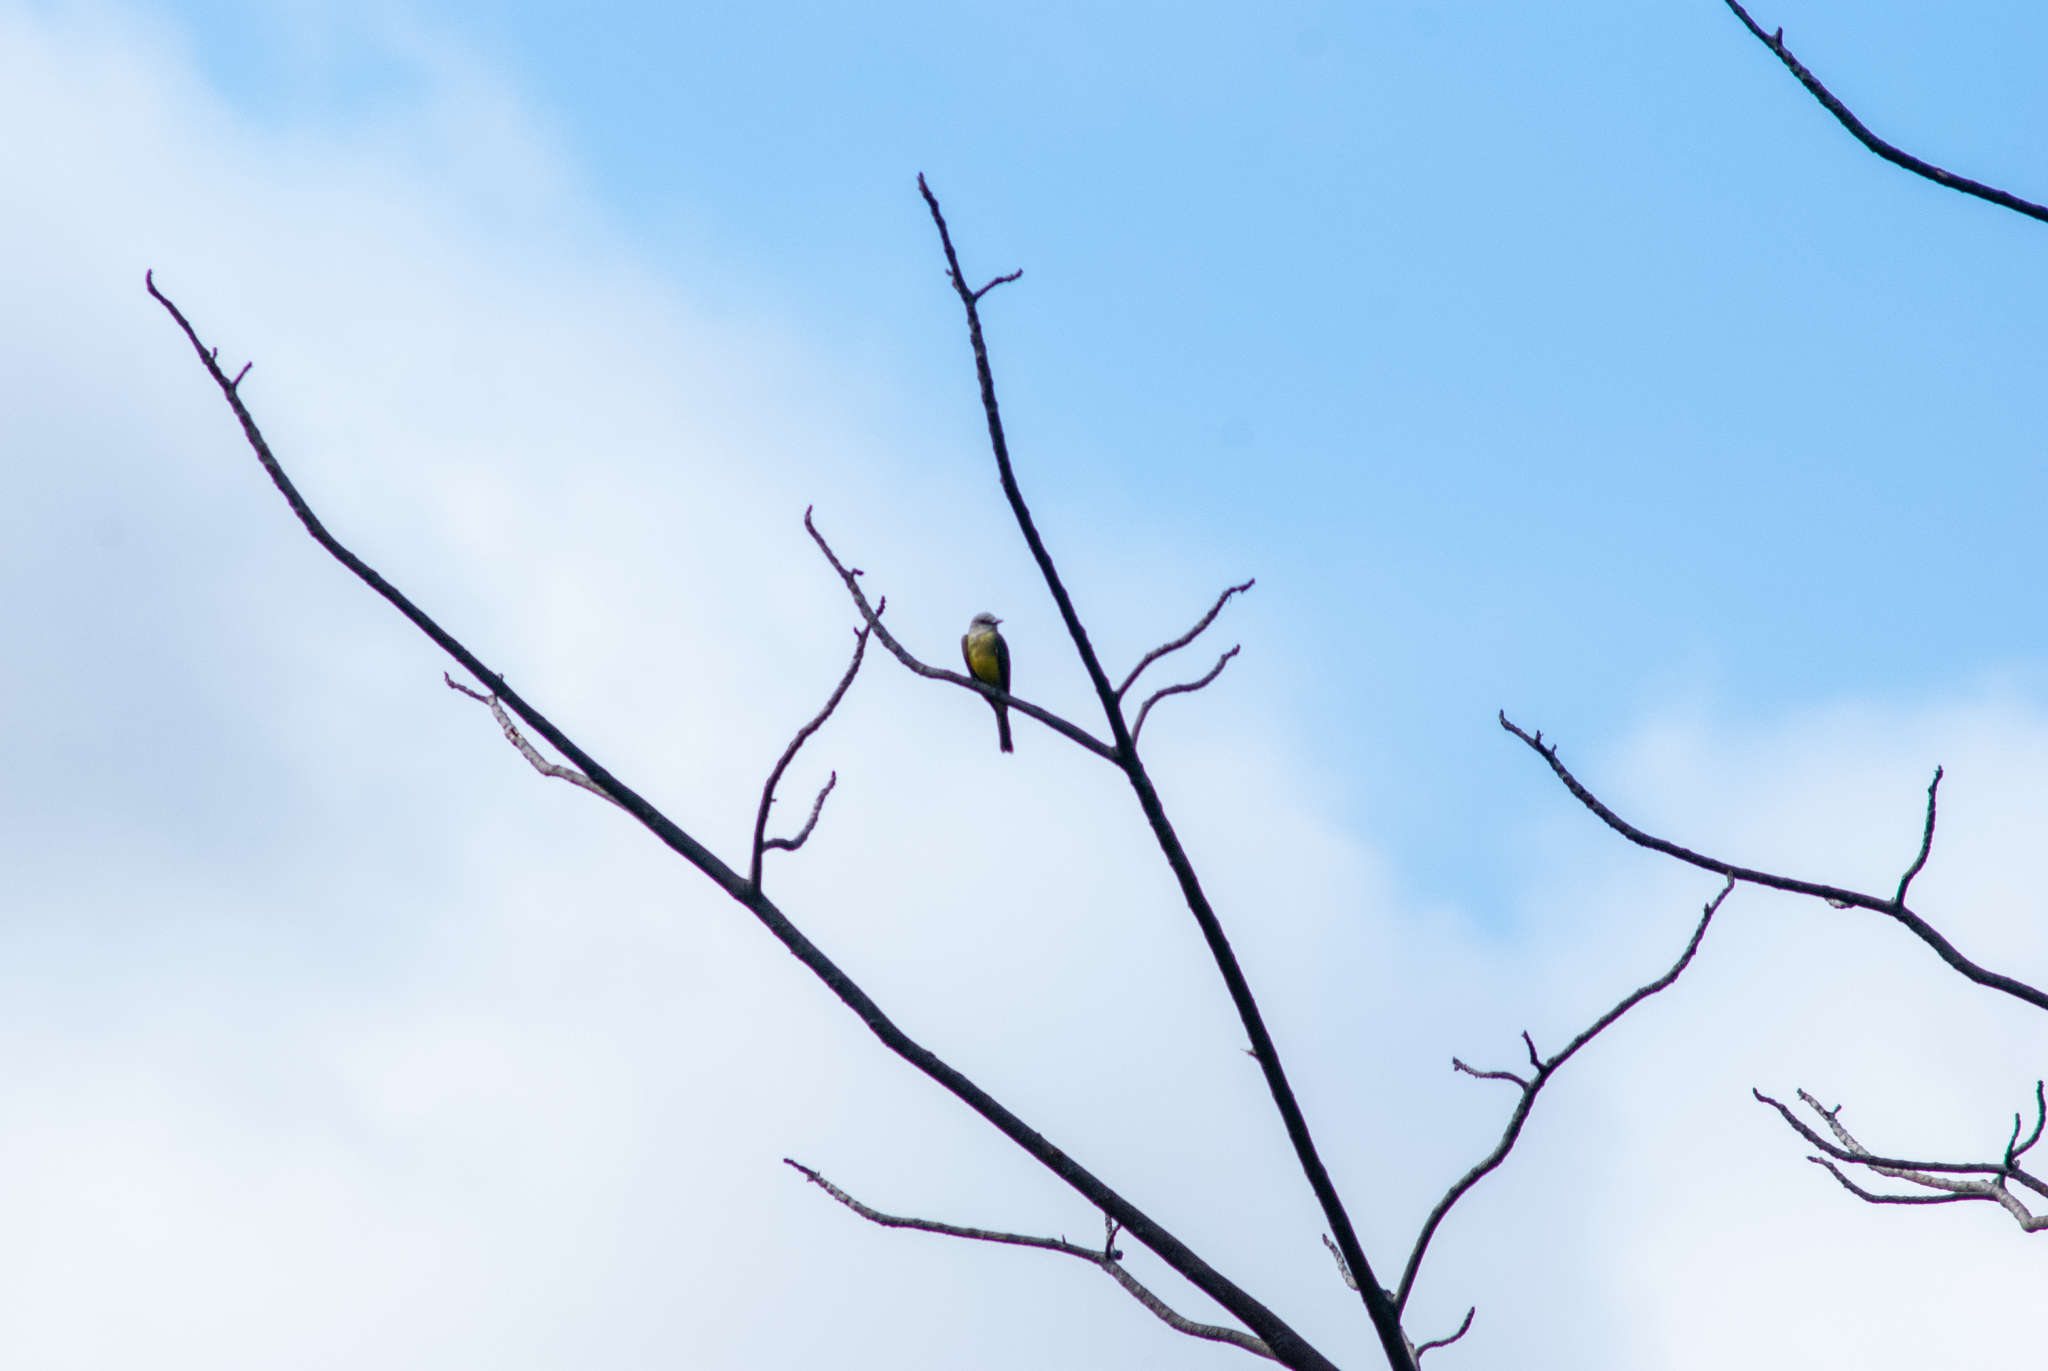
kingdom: Animalia
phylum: Chordata
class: Aves
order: Passeriformes
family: Tyrannidae
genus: Tyrannus
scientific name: Tyrannus melancholicus
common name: Tropical kingbird
